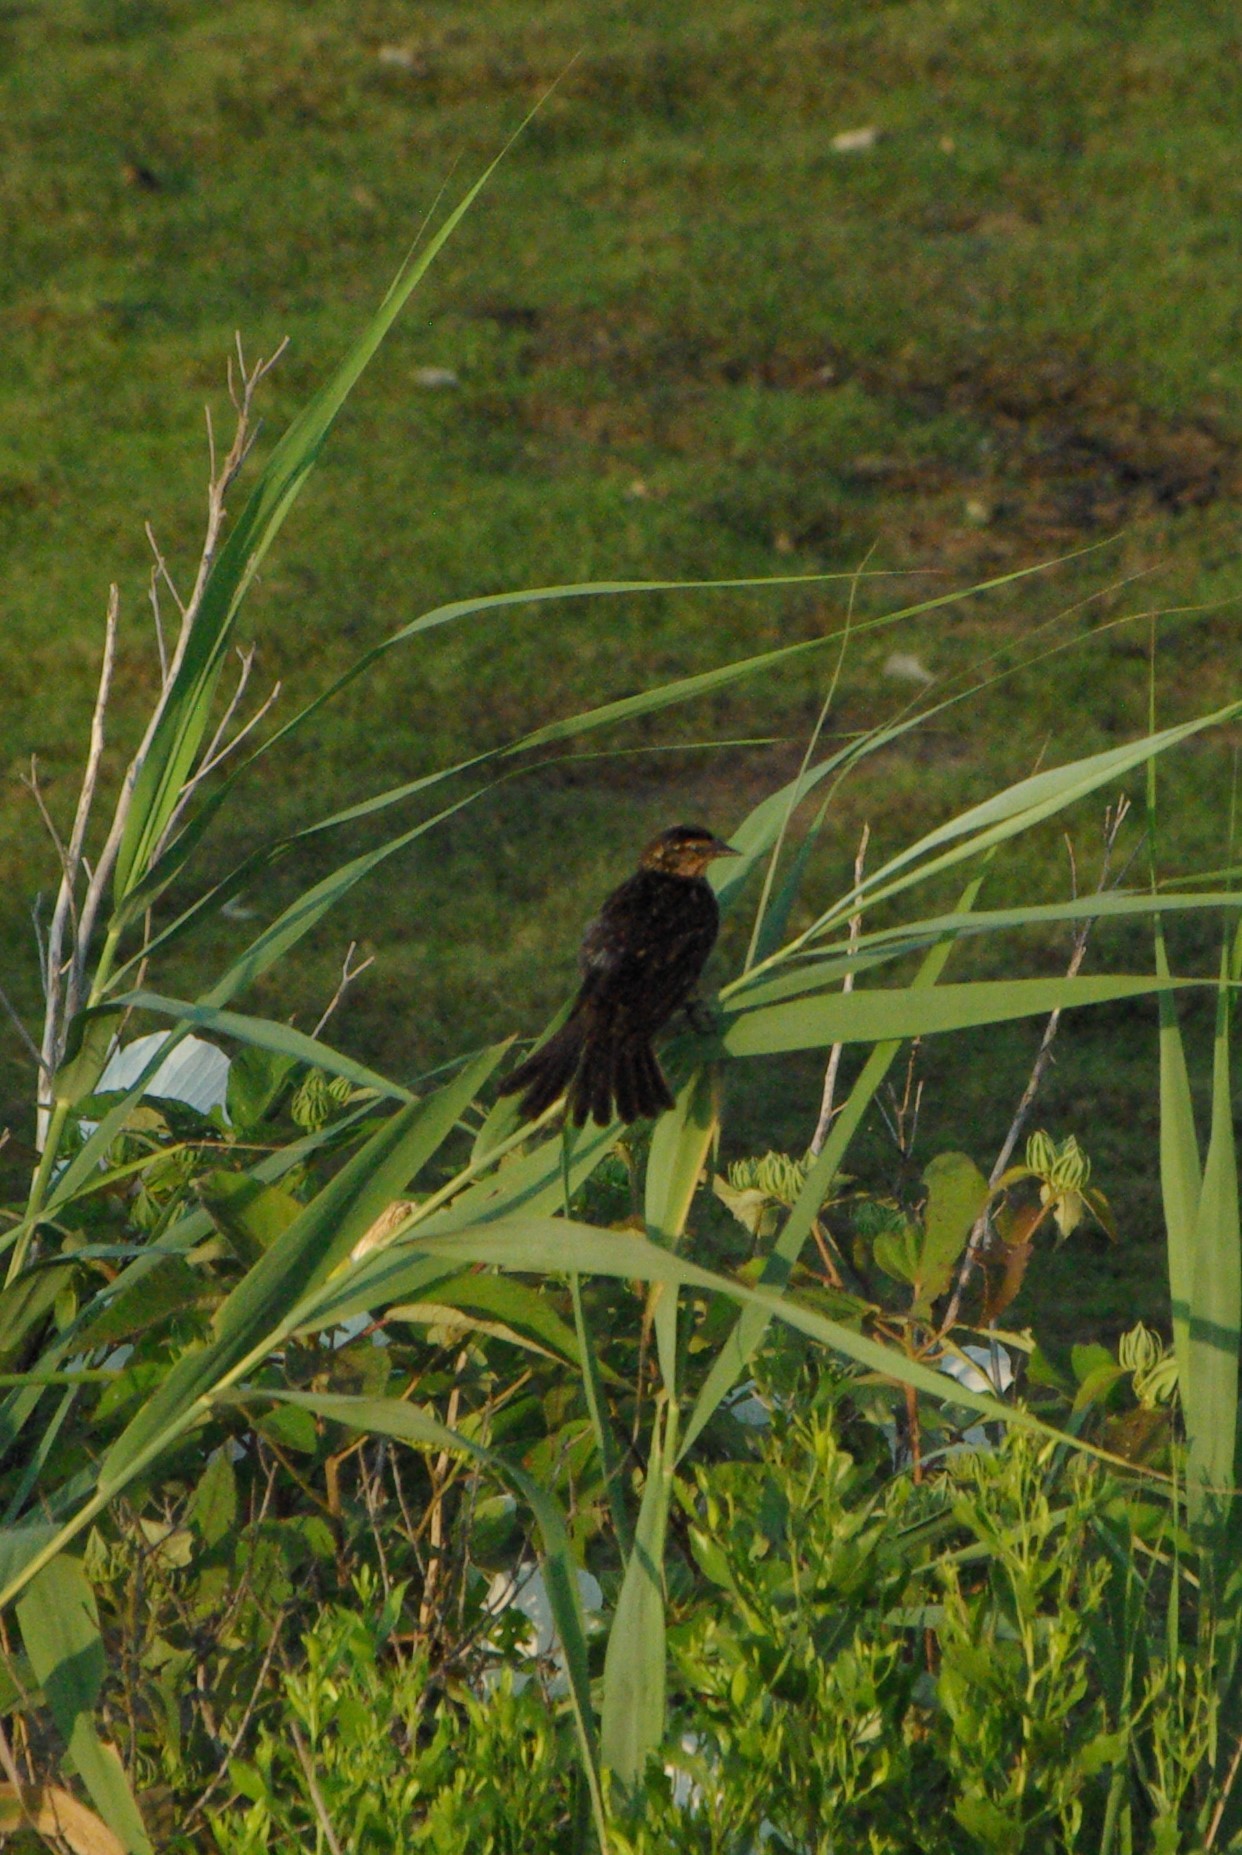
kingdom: Animalia
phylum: Chordata
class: Aves
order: Passeriformes
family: Icteridae
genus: Agelaius
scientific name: Agelaius phoeniceus
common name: Red-winged blackbird
